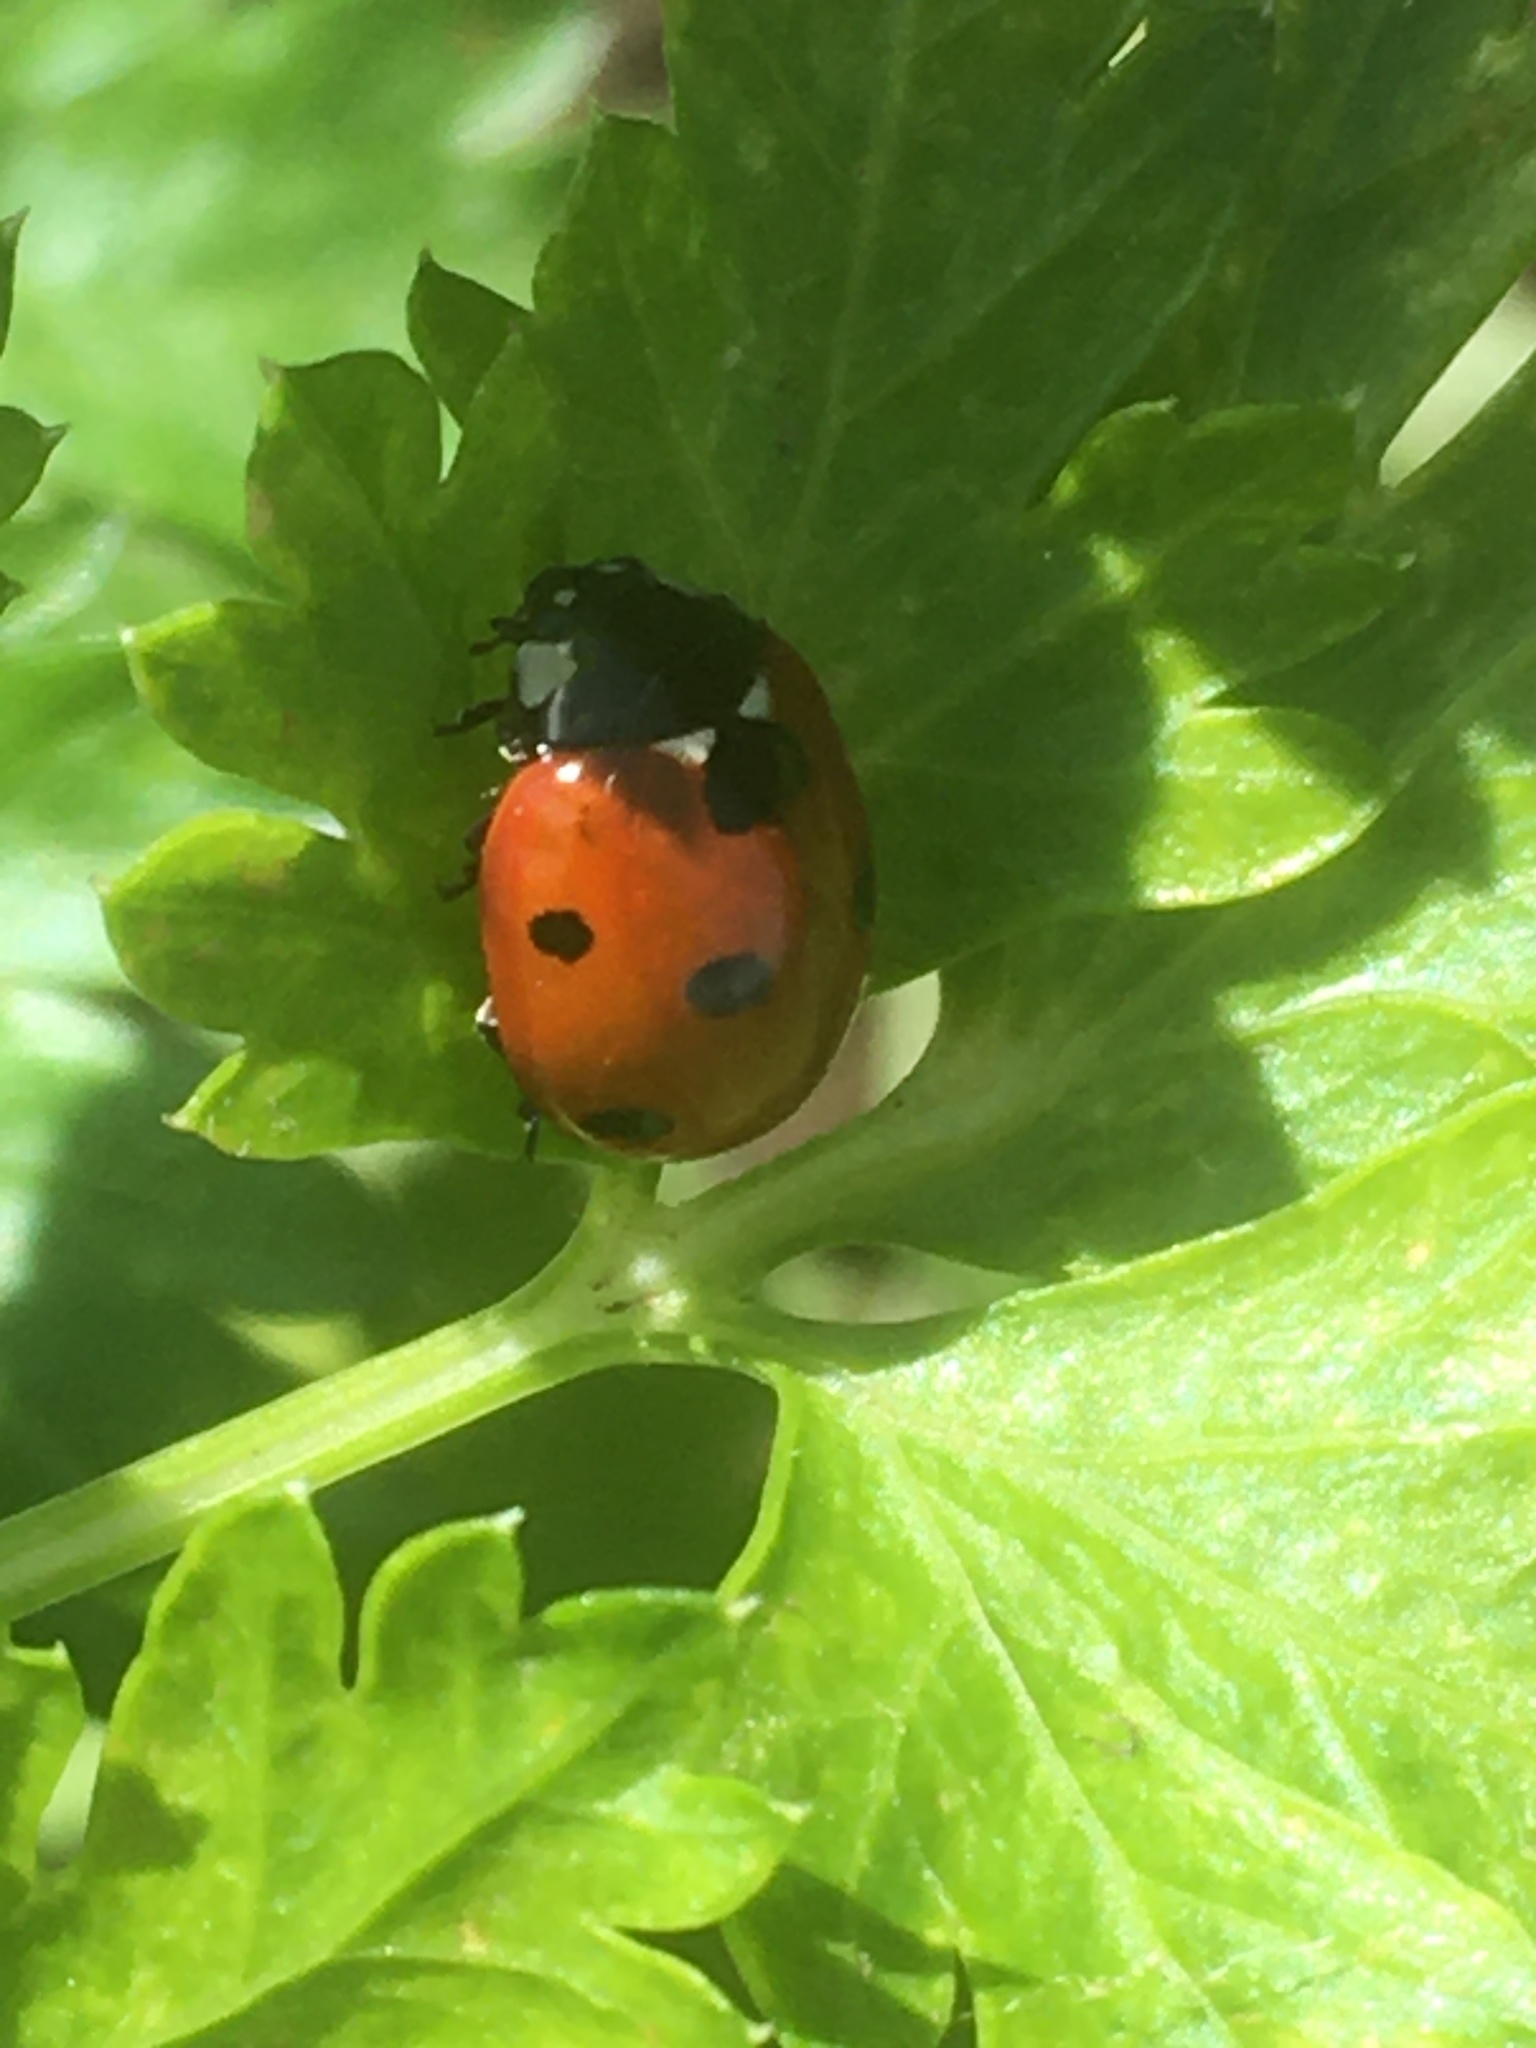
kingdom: Animalia
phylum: Arthropoda
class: Insecta
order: Coleoptera
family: Coccinellidae
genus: Coccinella
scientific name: Coccinella septempunctata
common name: Sevenspotted lady beetle
